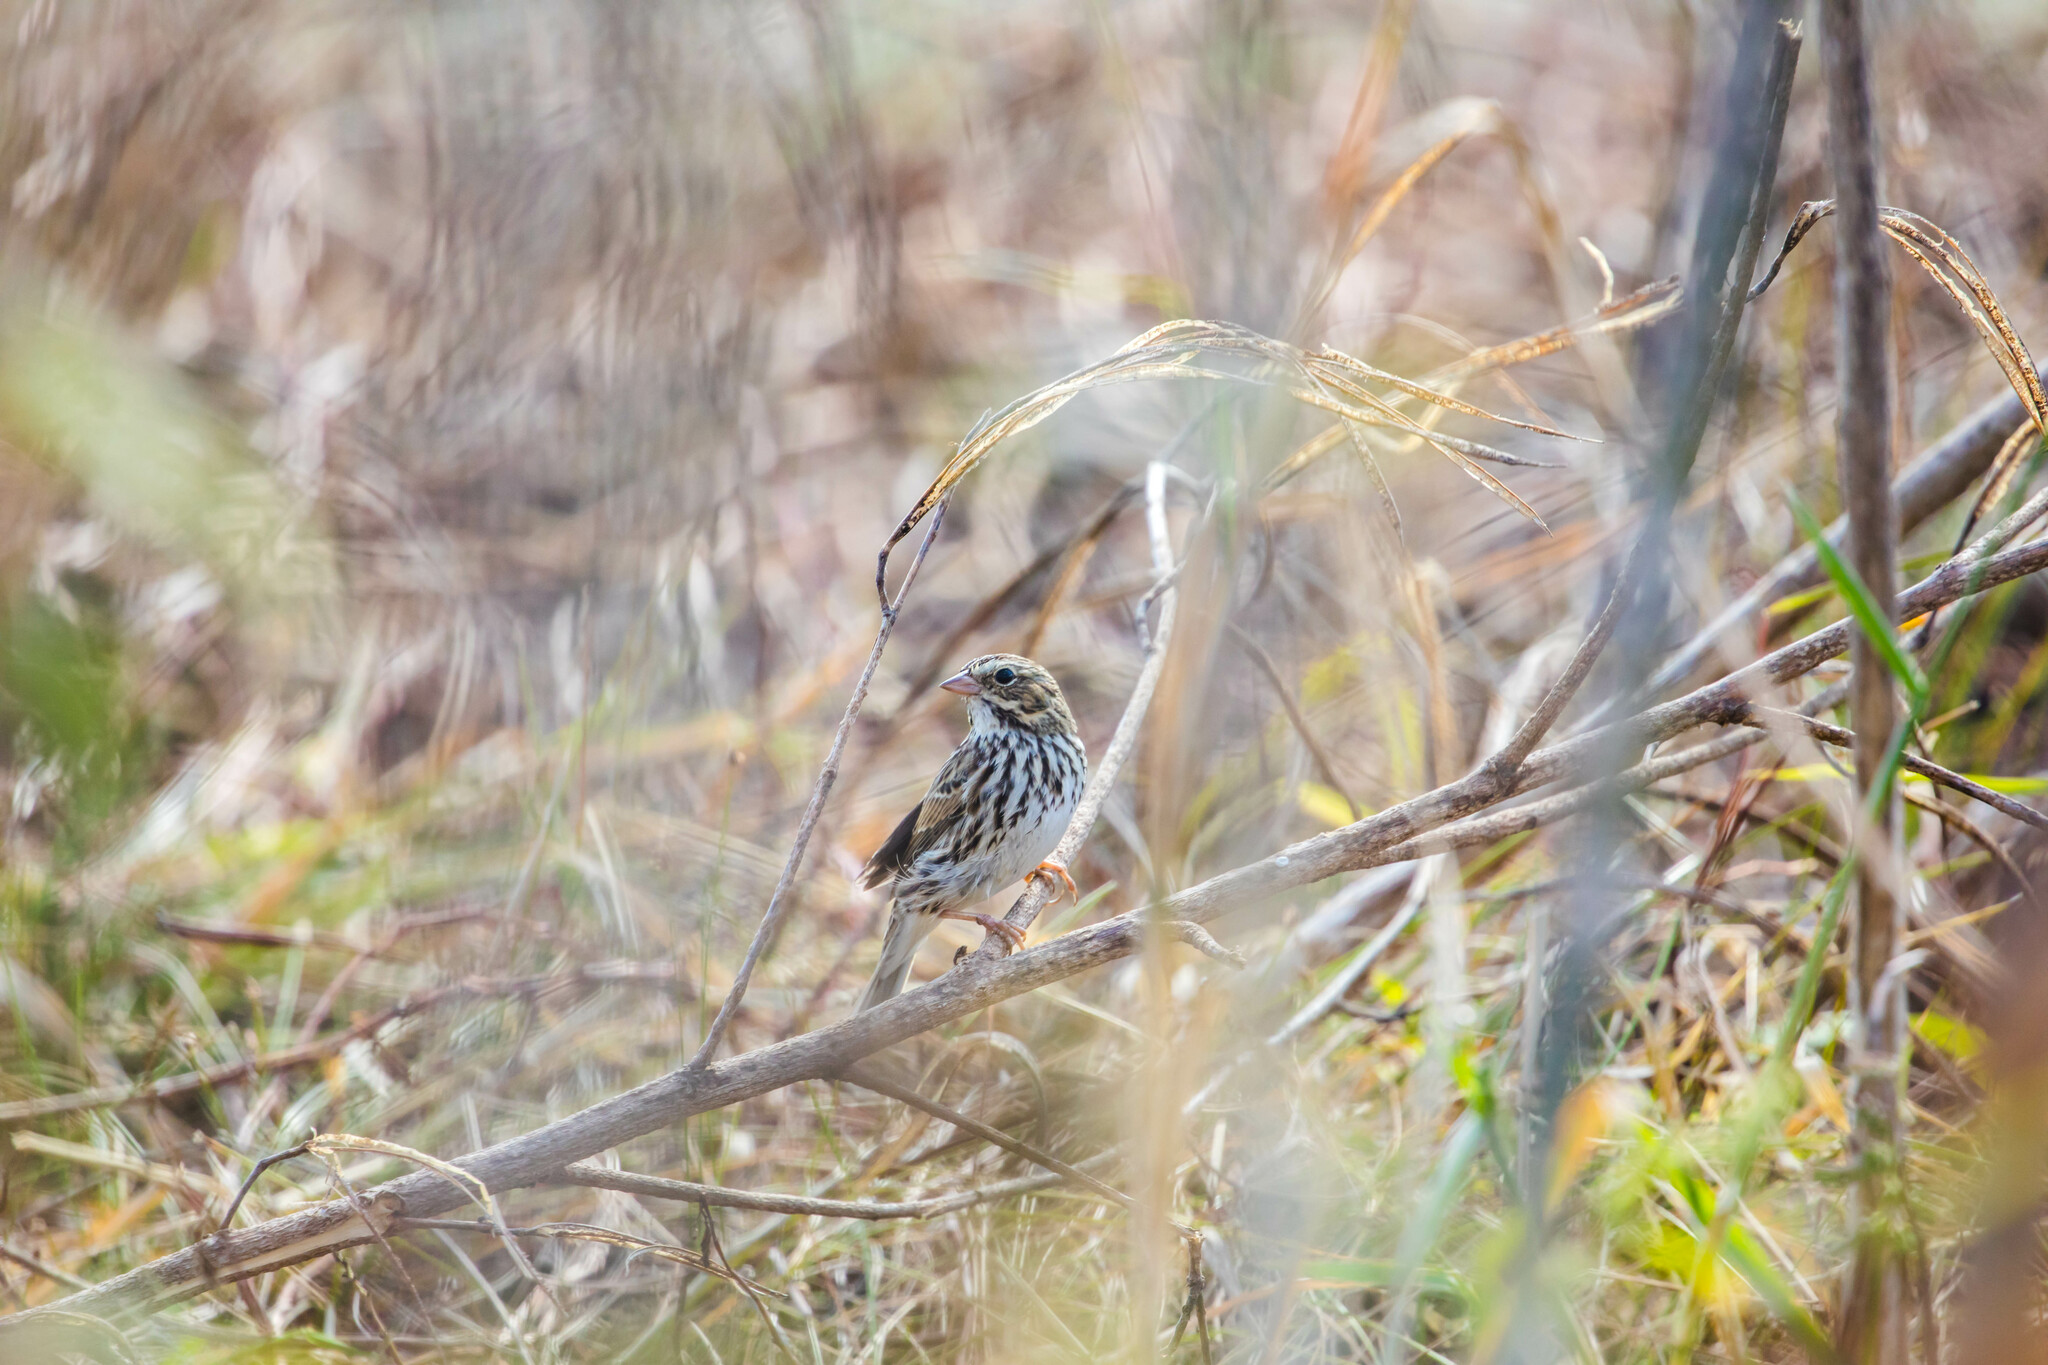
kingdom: Animalia
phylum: Chordata
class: Aves
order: Passeriformes
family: Passerellidae
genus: Passerculus
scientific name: Passerculus sandwichensis
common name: Savannah sparrow
